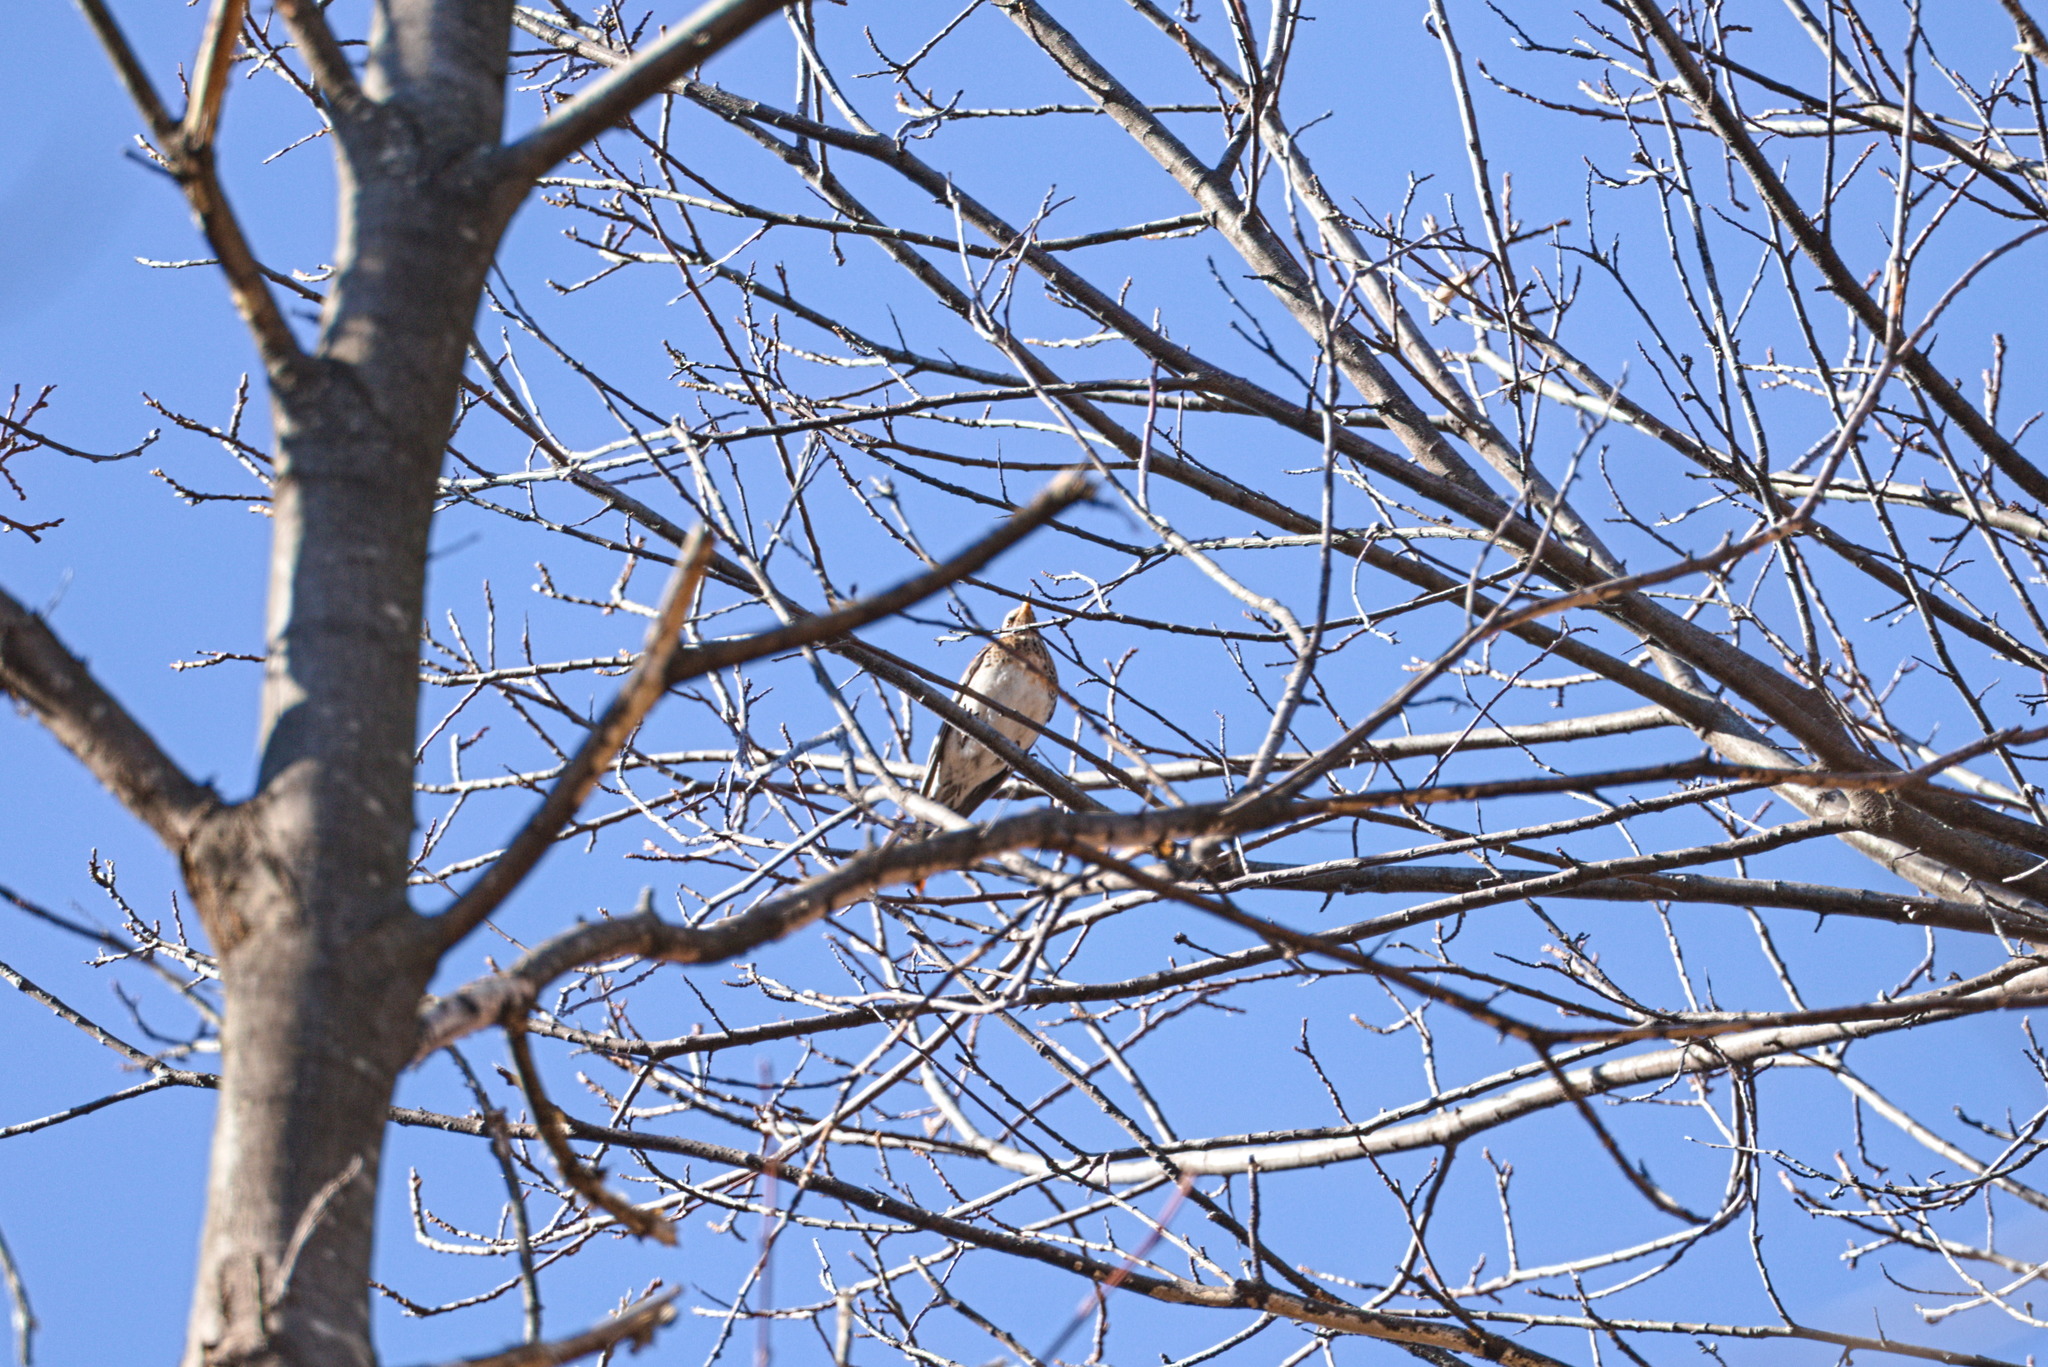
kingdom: Animalia
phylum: Chordata
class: Aves
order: Passeriformes
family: Turdidae
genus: Turdus
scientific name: Turdus pilaris
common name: Fieldfare
